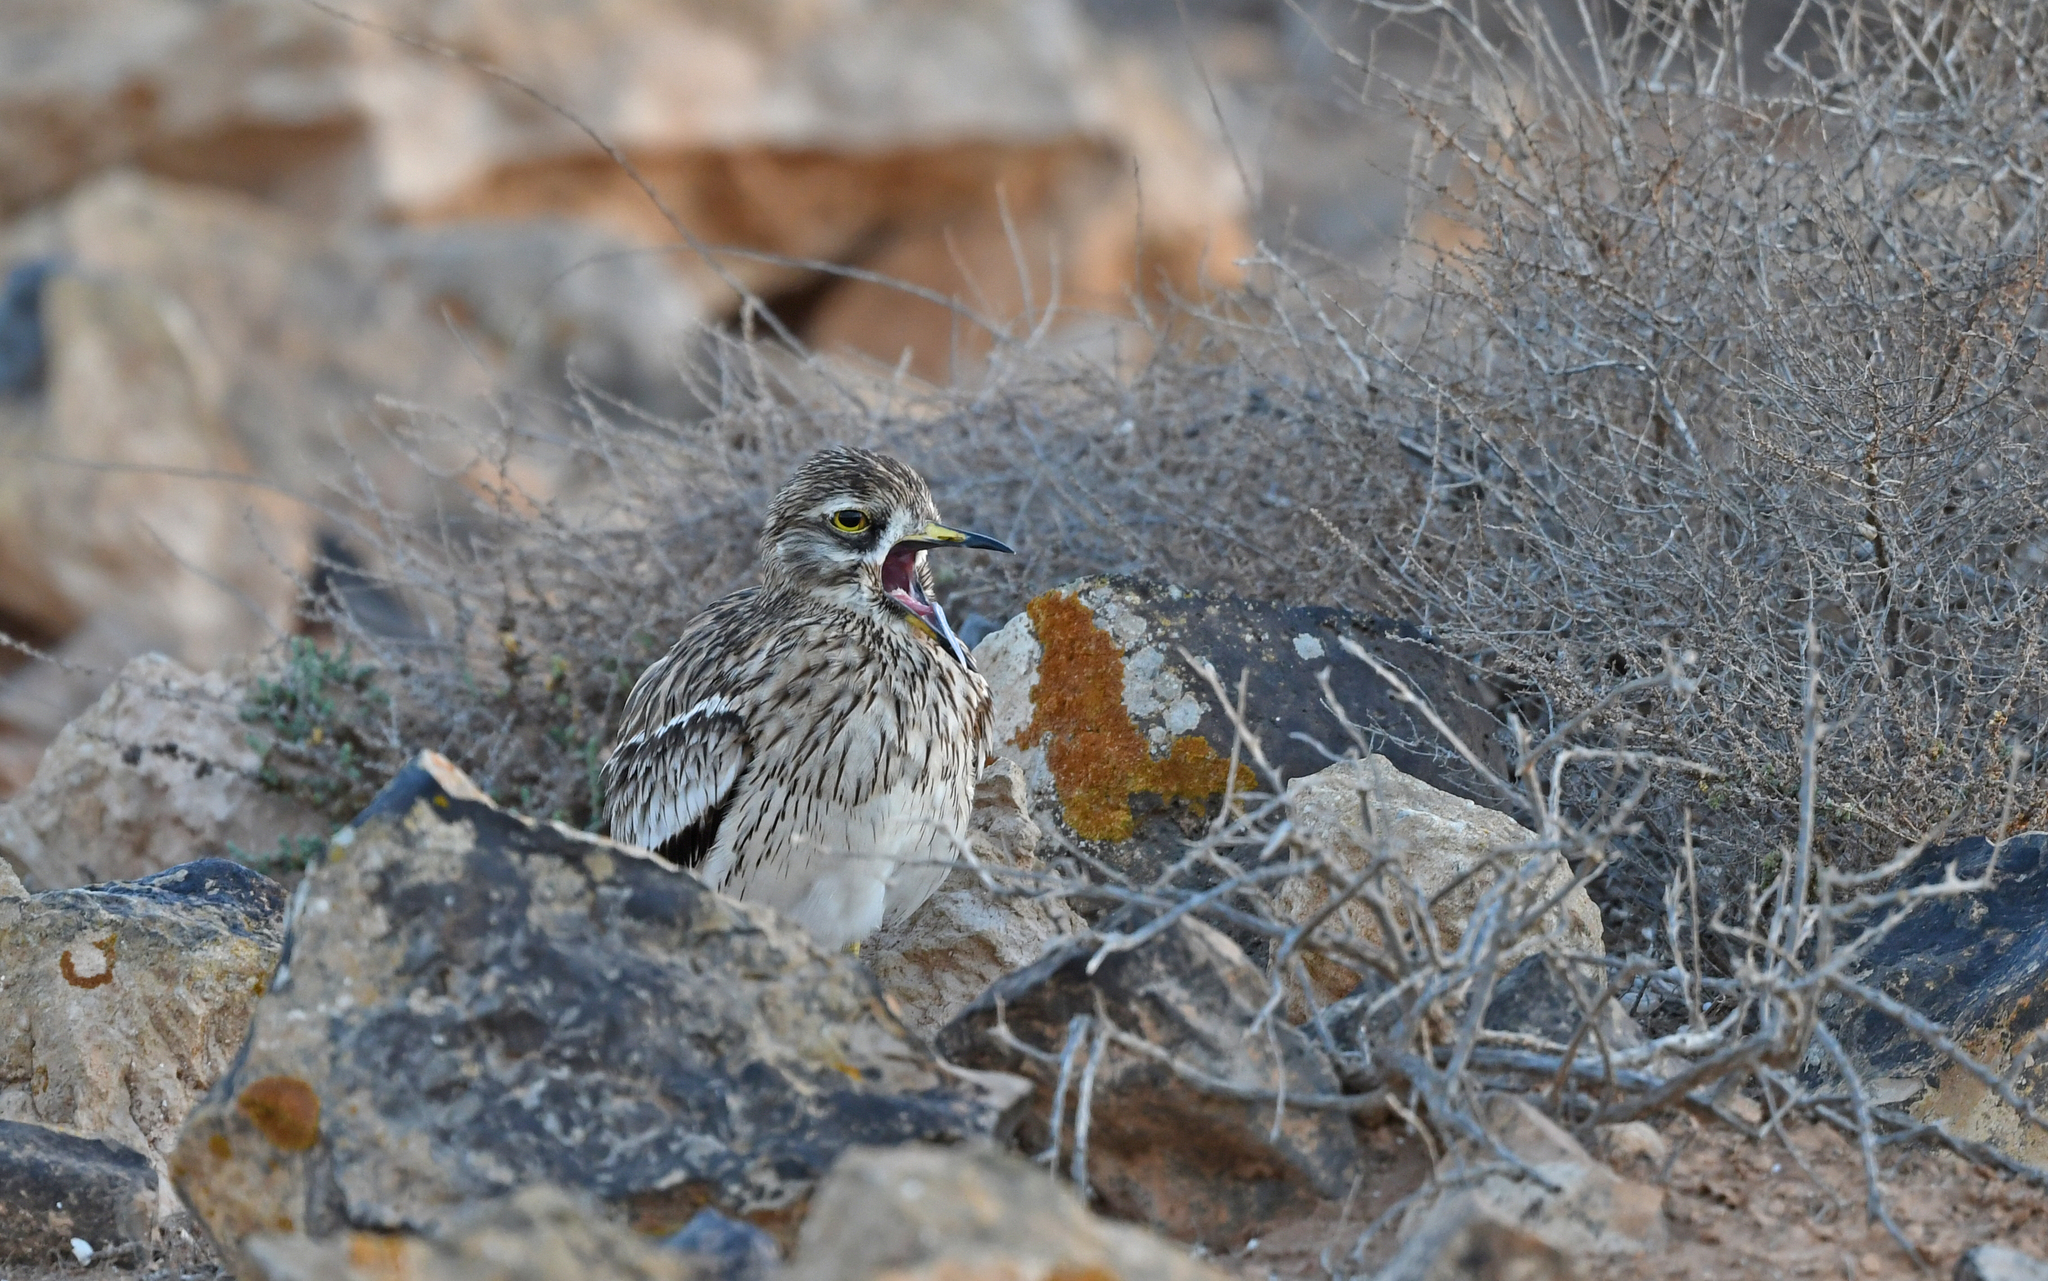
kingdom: Animalia
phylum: Chordata
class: Aves
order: Charadriiformes
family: Burhinidae
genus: Burhinus
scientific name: Burhinus oedicnemus
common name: Eurasian stone-curlew
